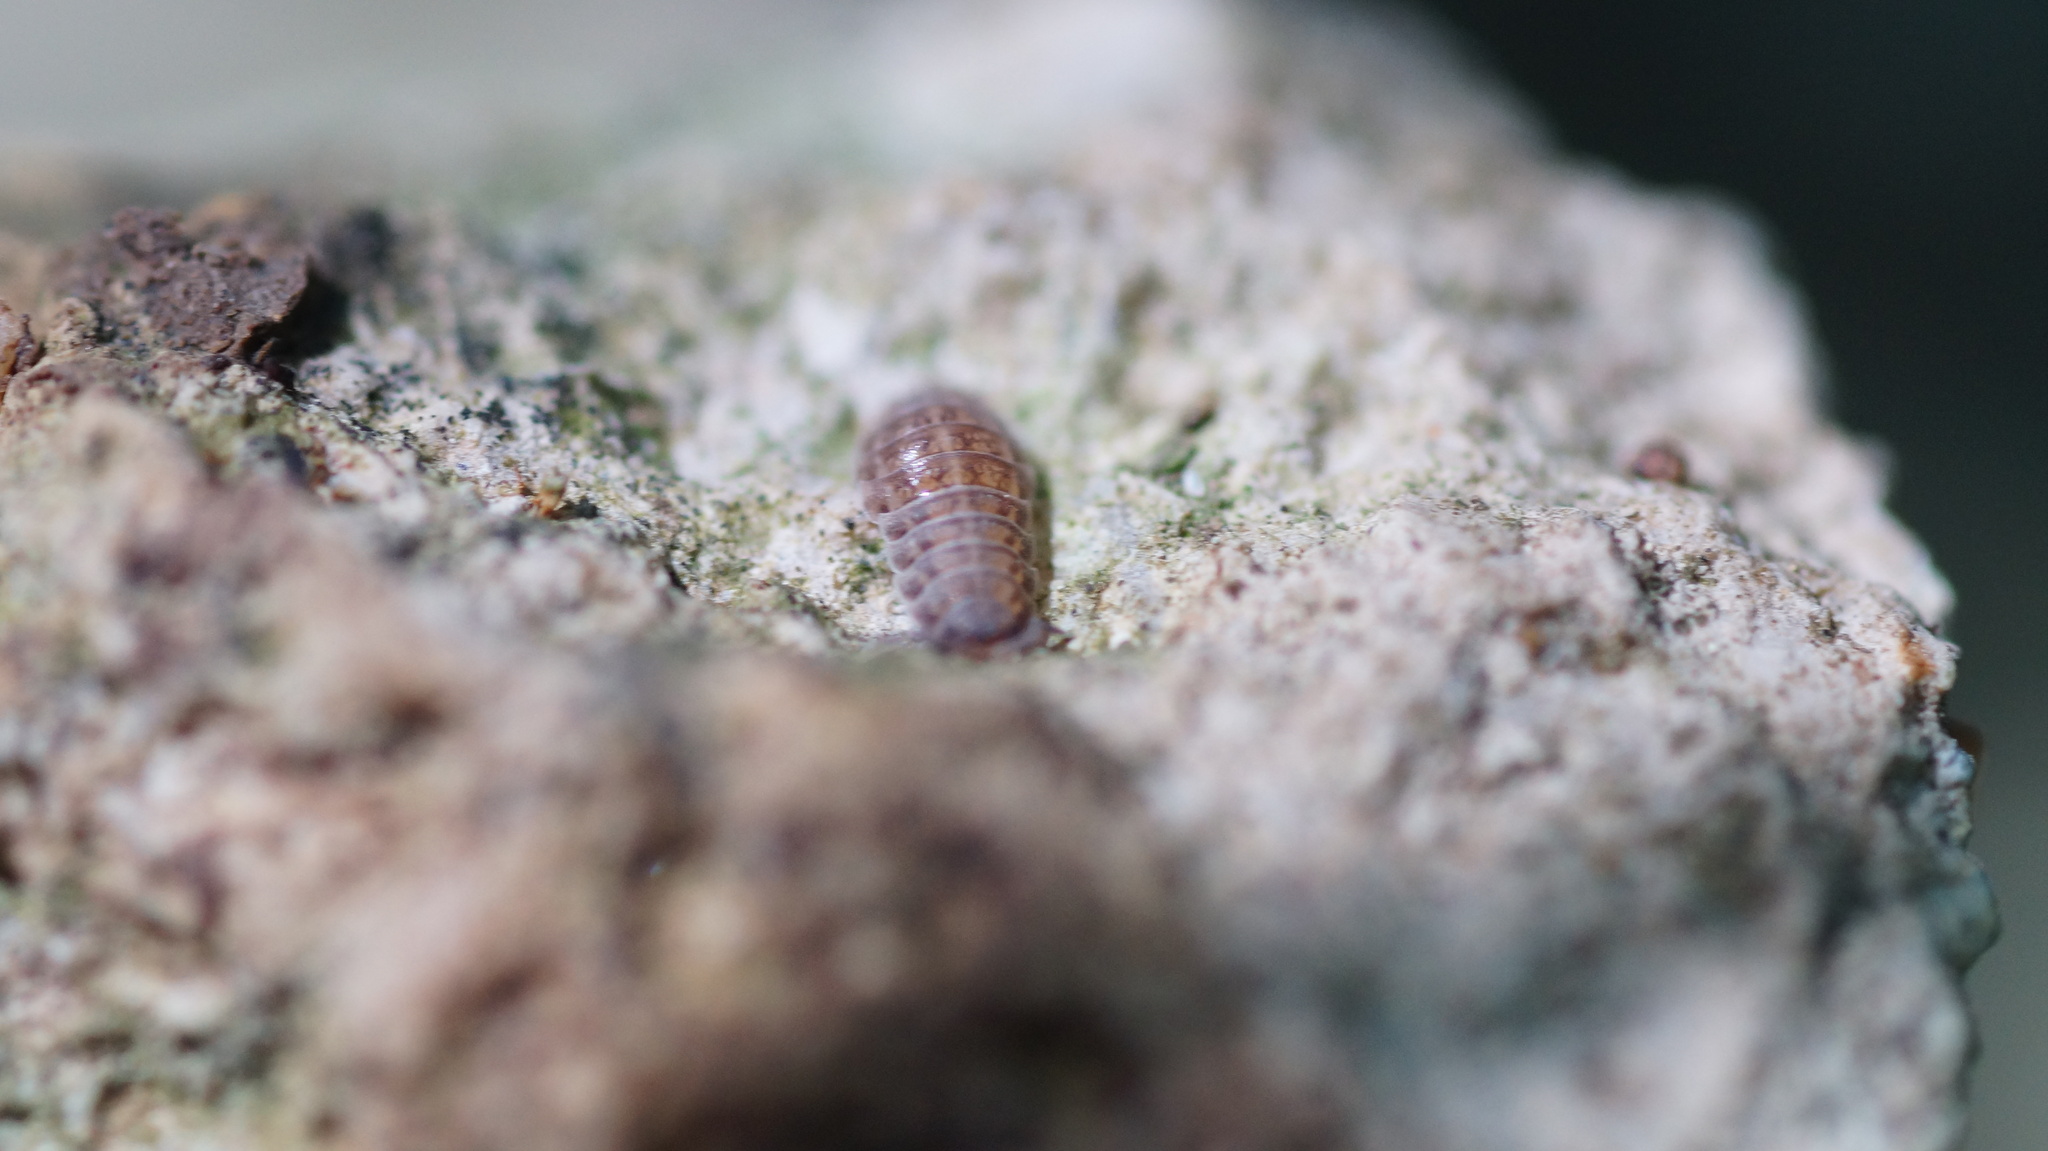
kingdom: Animalia
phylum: Arthropoda
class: Malacostraca
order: Isopoda
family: Trachelipodidae
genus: Trachelipus
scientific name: Trachelipus rathkii
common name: Isopod
